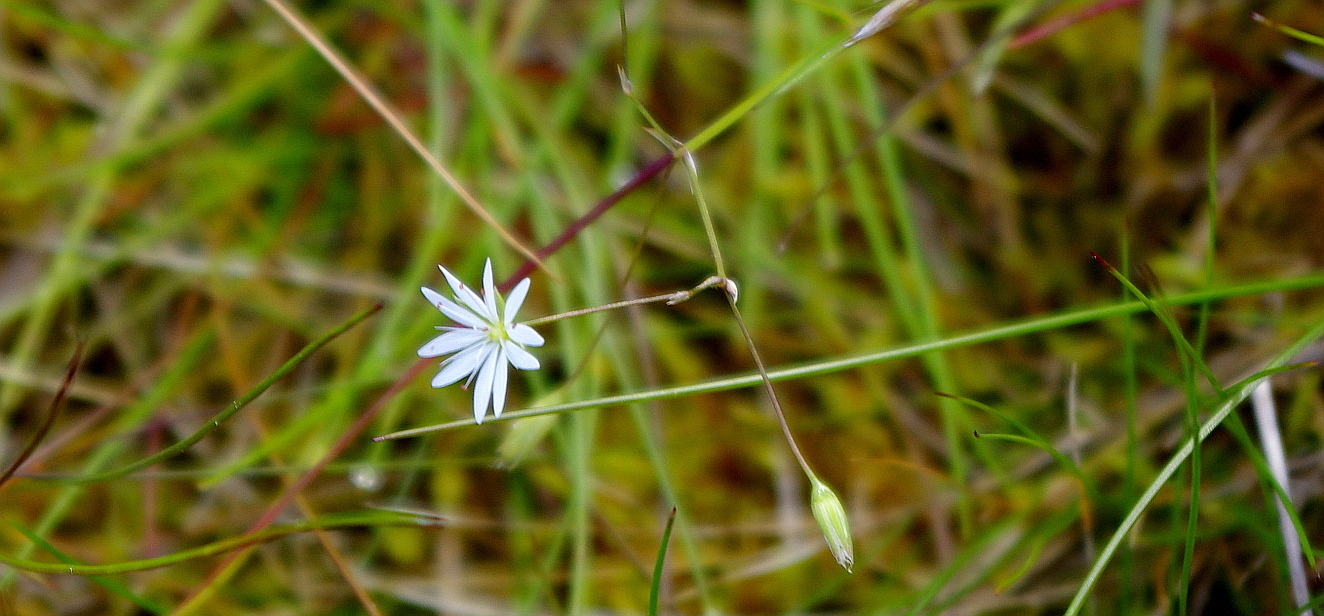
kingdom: Plantae
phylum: Tracheophyta
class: Magnoliopsida
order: Caryophyllales
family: Caryophyllaceae
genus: Stellaria
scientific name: Stellaria palustris
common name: Marsh stitchwort
